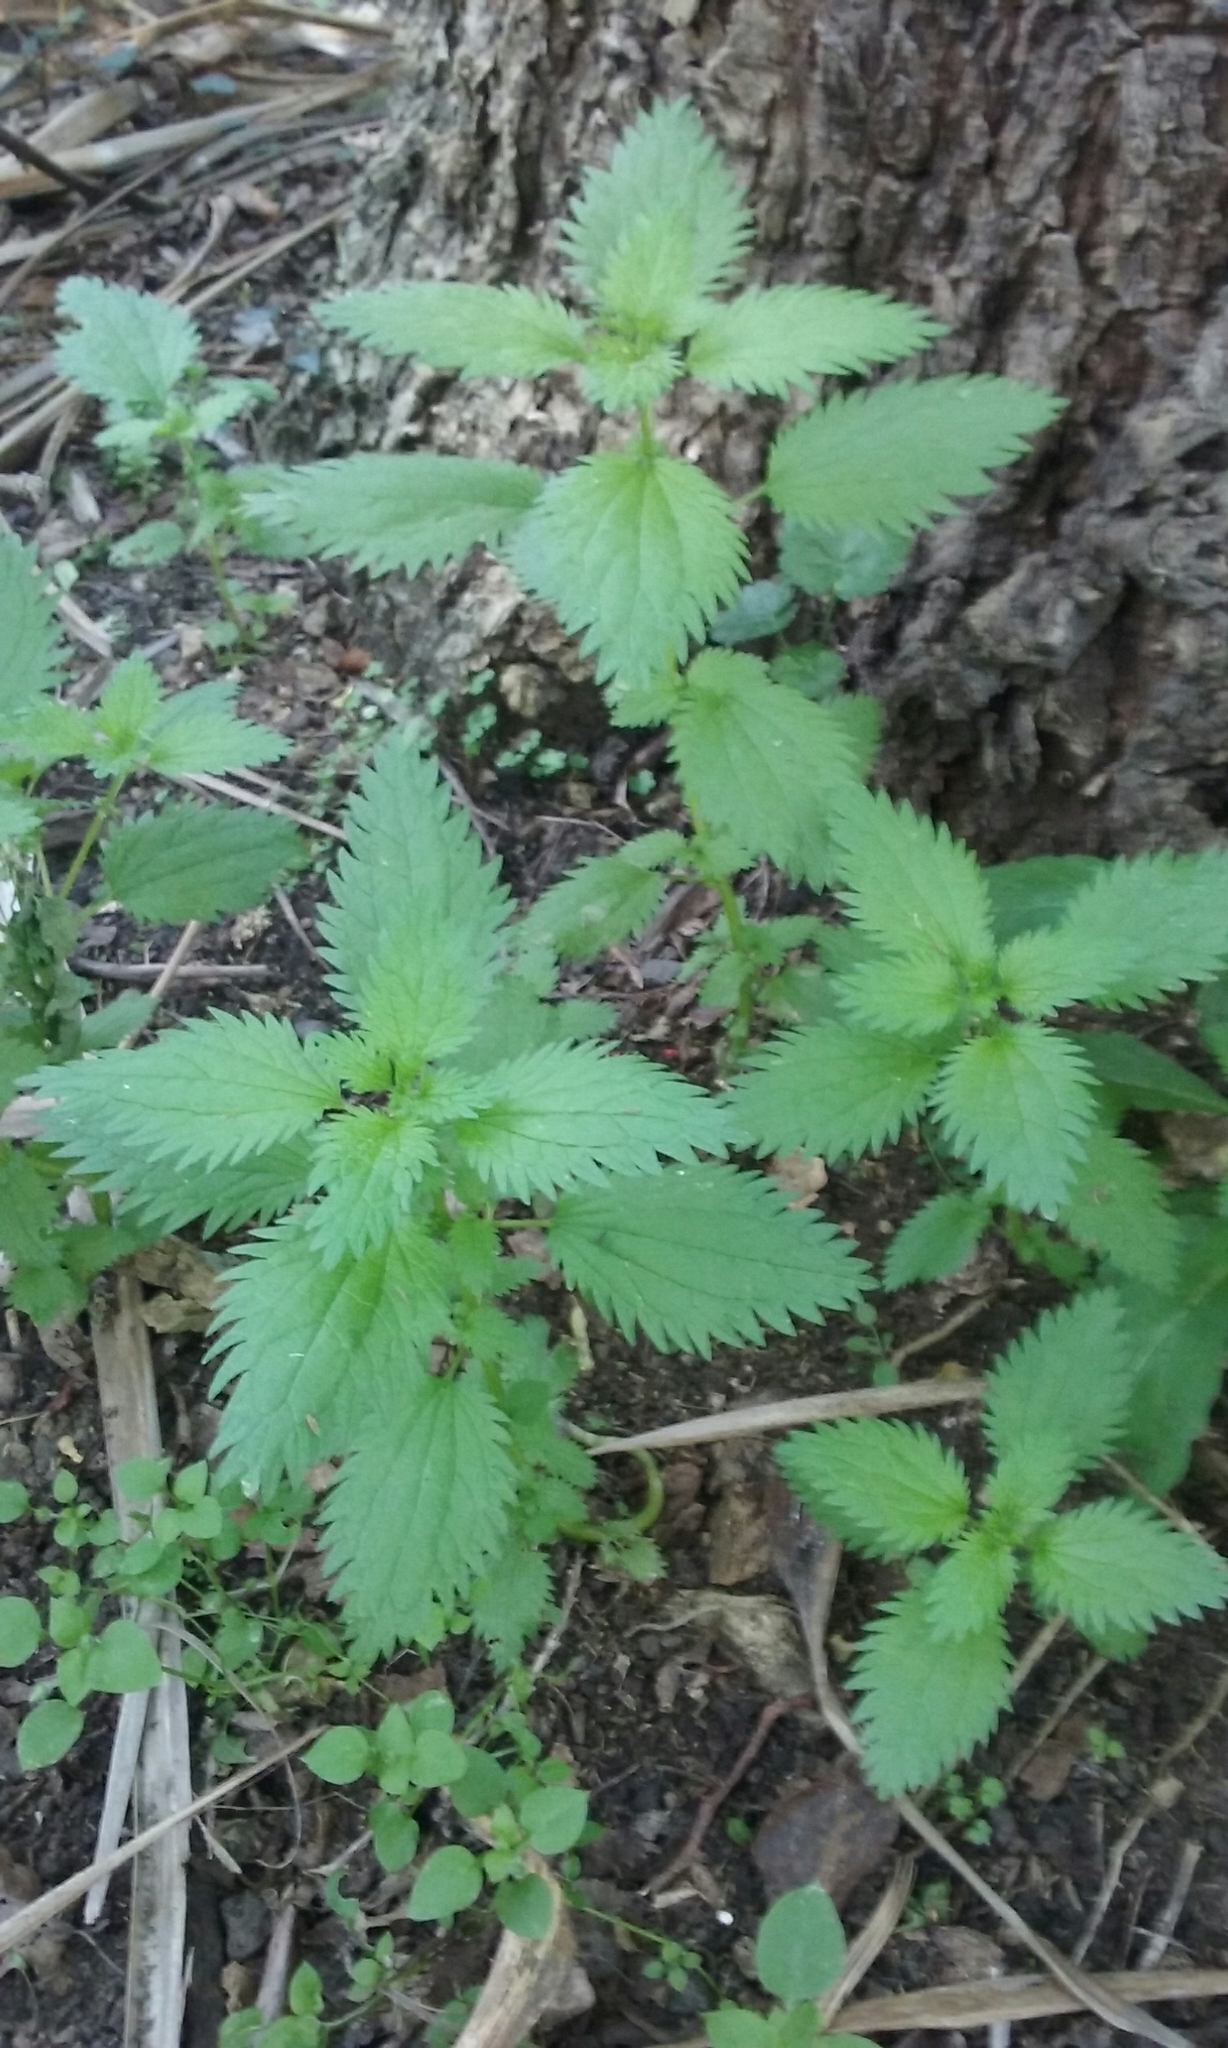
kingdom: Plantae
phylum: Tracheophyta
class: Magnoliopsida
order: Rosales
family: Urticaceae
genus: Urtica
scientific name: Urtica urens
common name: Dwarf nettle
